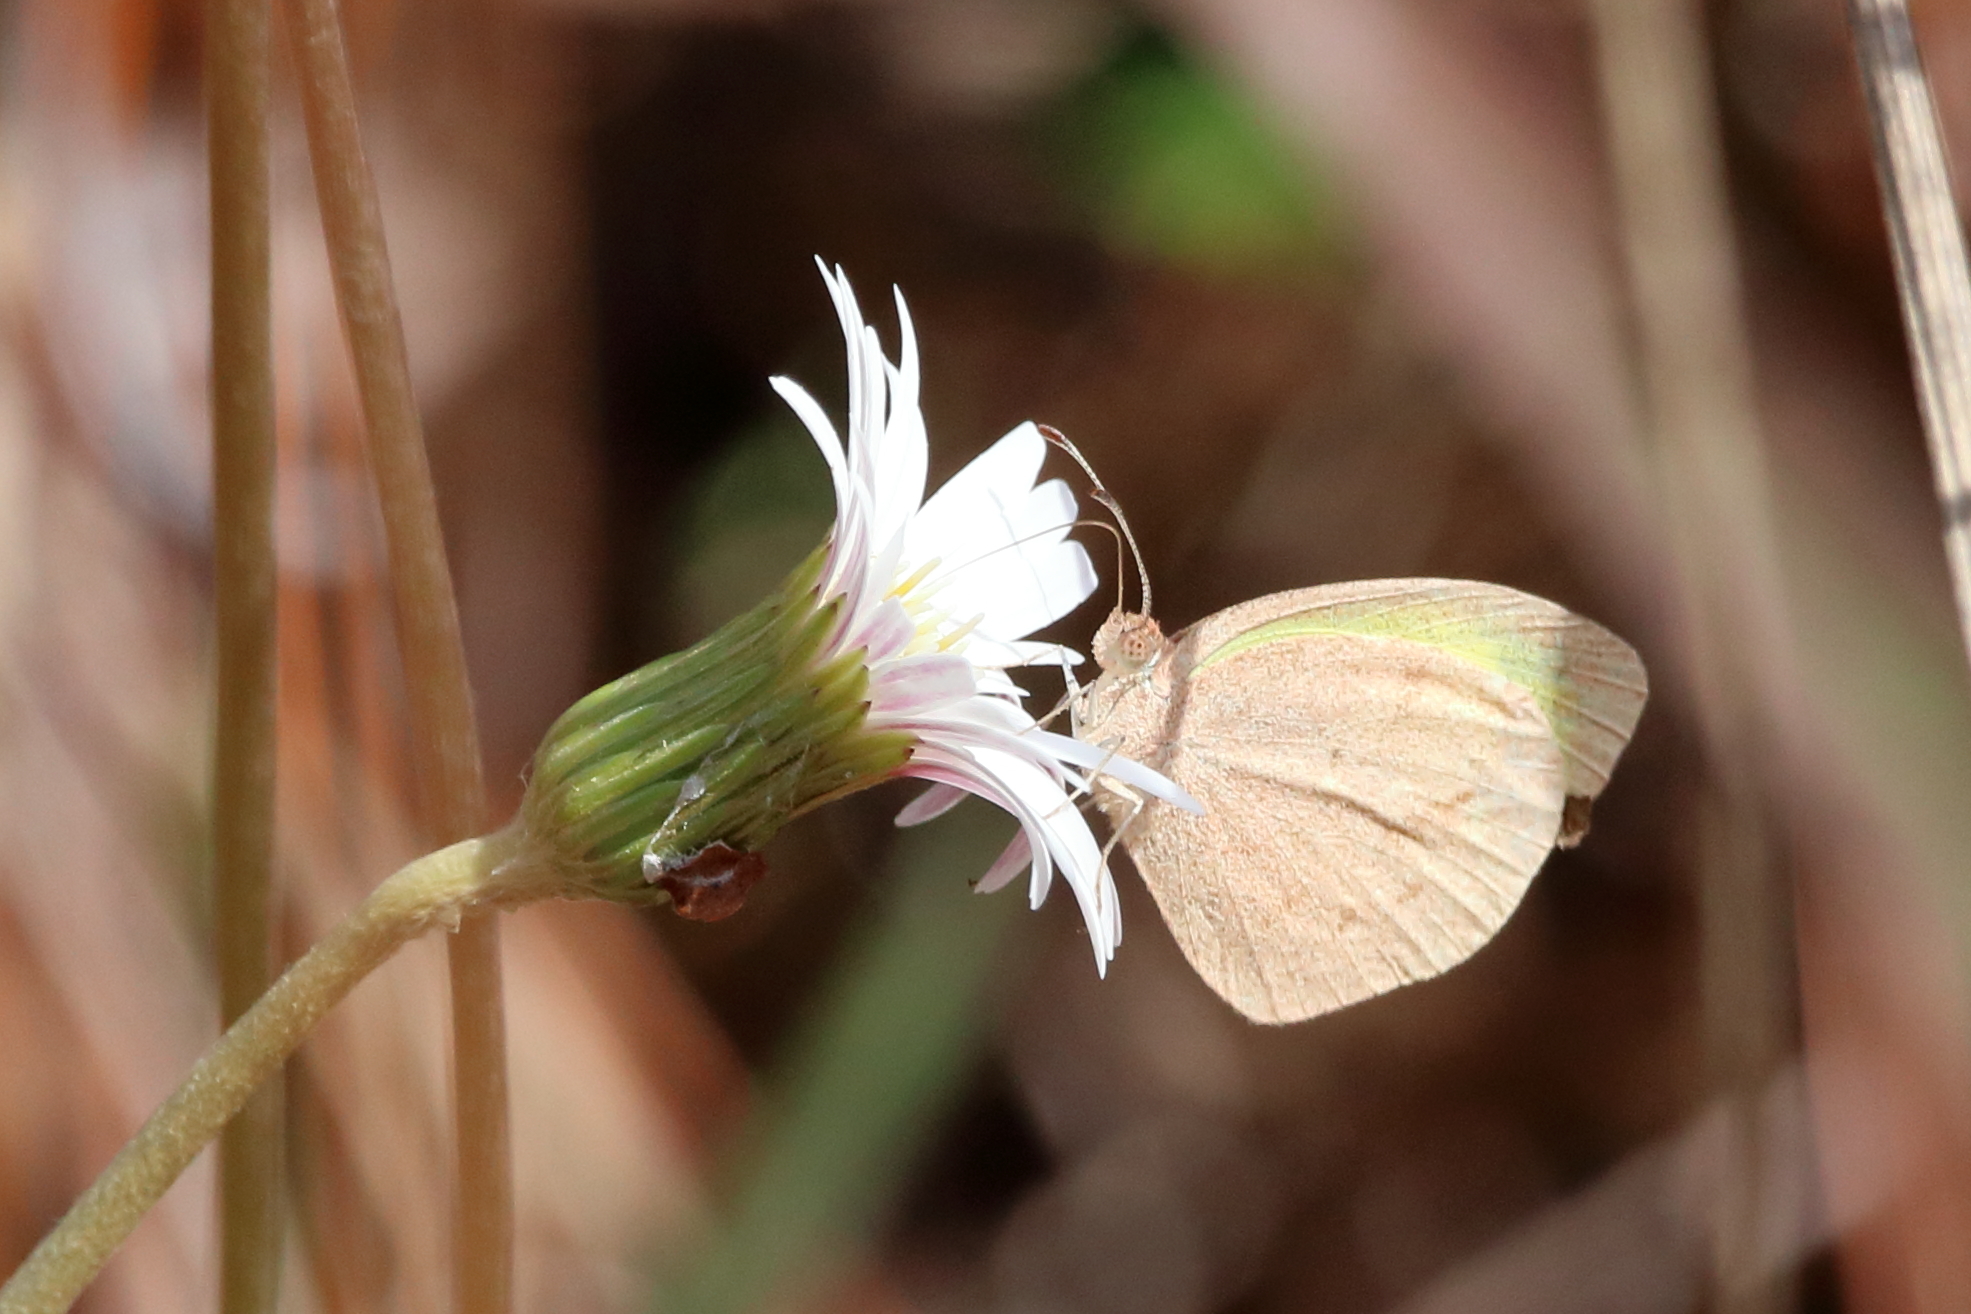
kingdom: Animalia
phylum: Arthropoda
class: Insecta
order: Lepidoptera
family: Pieridae
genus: Eurema
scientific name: Eurema daira
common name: Barred sulphur
